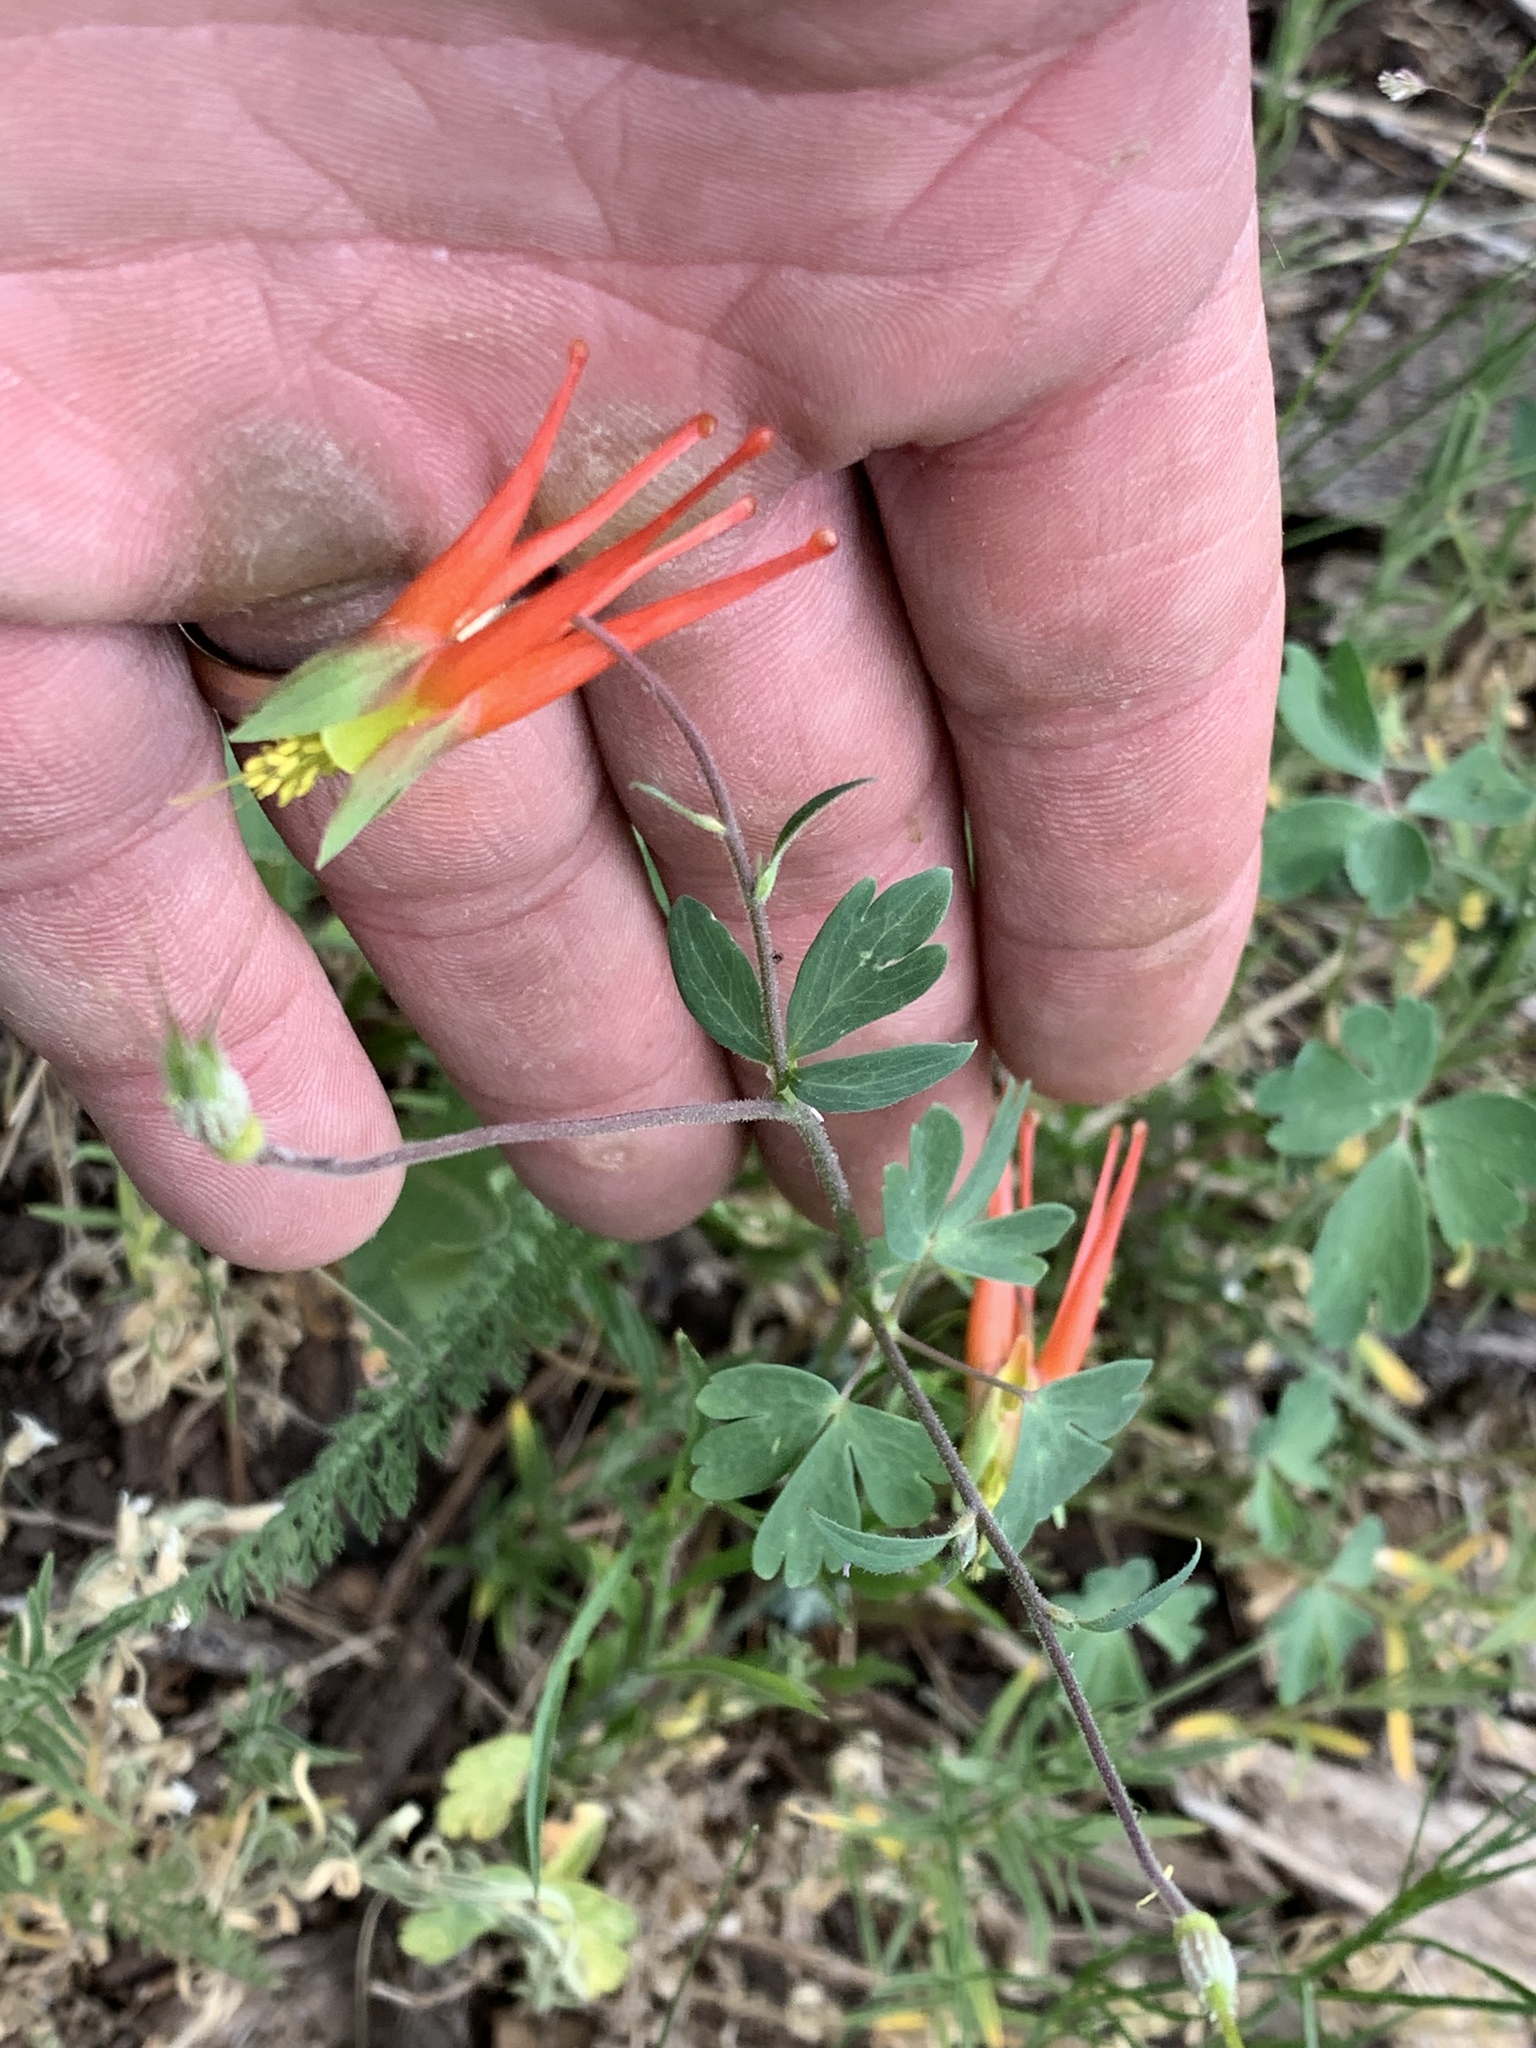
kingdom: Plantae
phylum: Tracheophyta
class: Magnoliopsida
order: Ranunculales
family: Ranunculaceae
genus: Aquilegia
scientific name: Aquilegia elegantula
